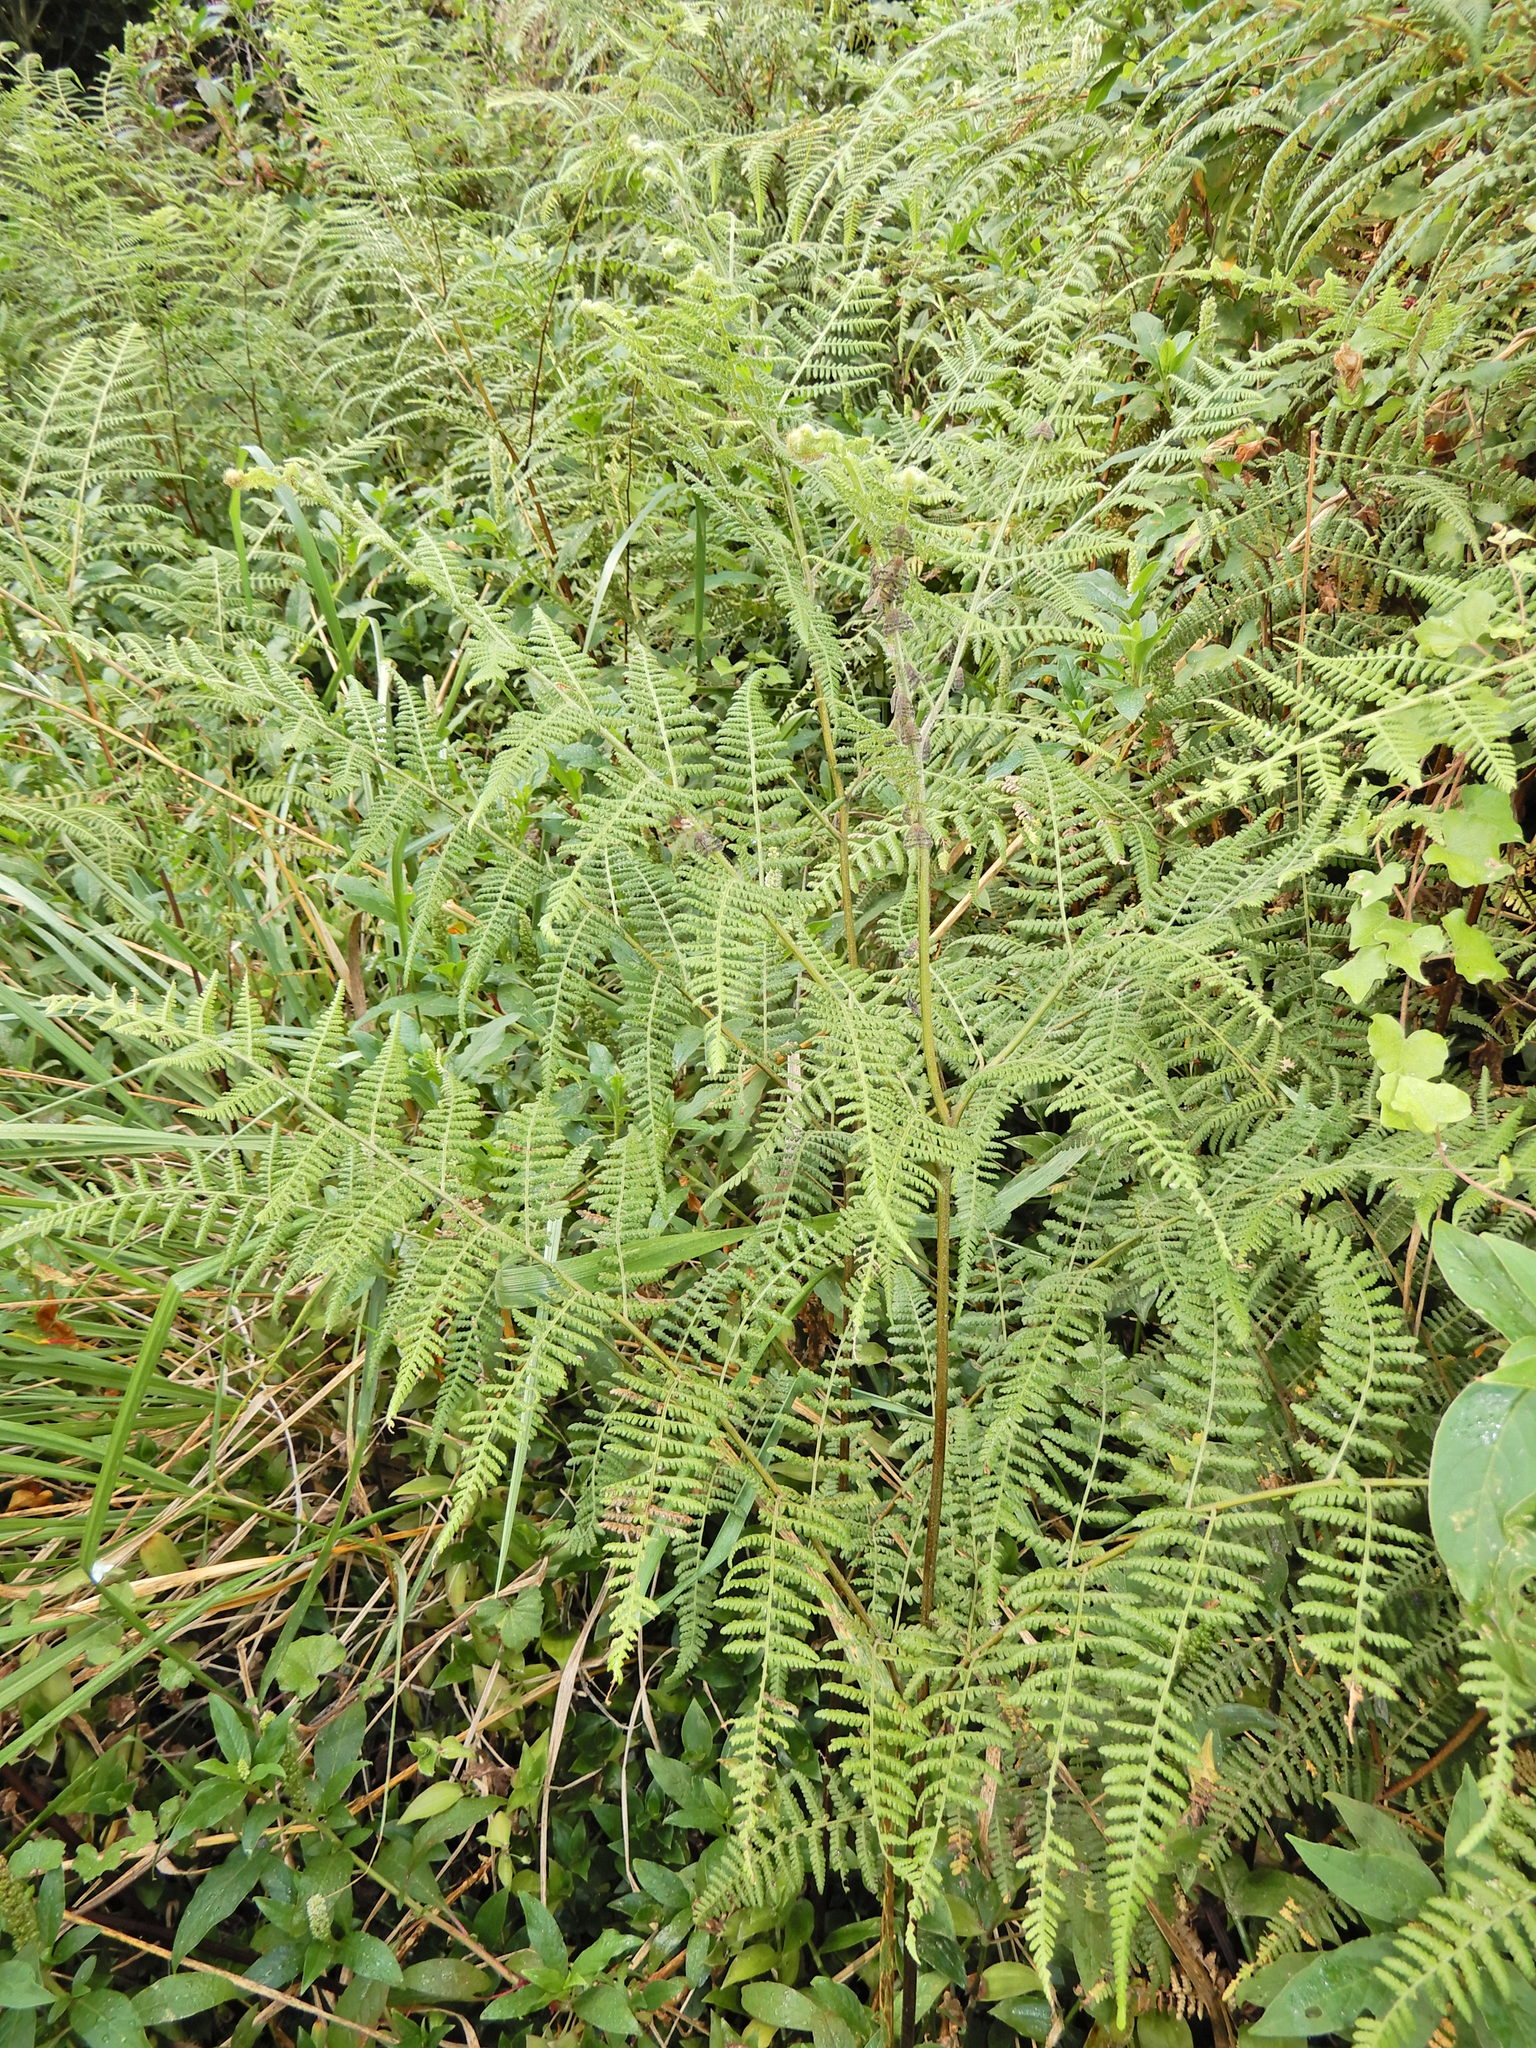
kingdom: Plantae
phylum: Tracheophyta
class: Polypodiopsida
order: Polypodiales
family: Dennstaedtiaceae
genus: Hypolepis
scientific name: Hypolepis ambigua
